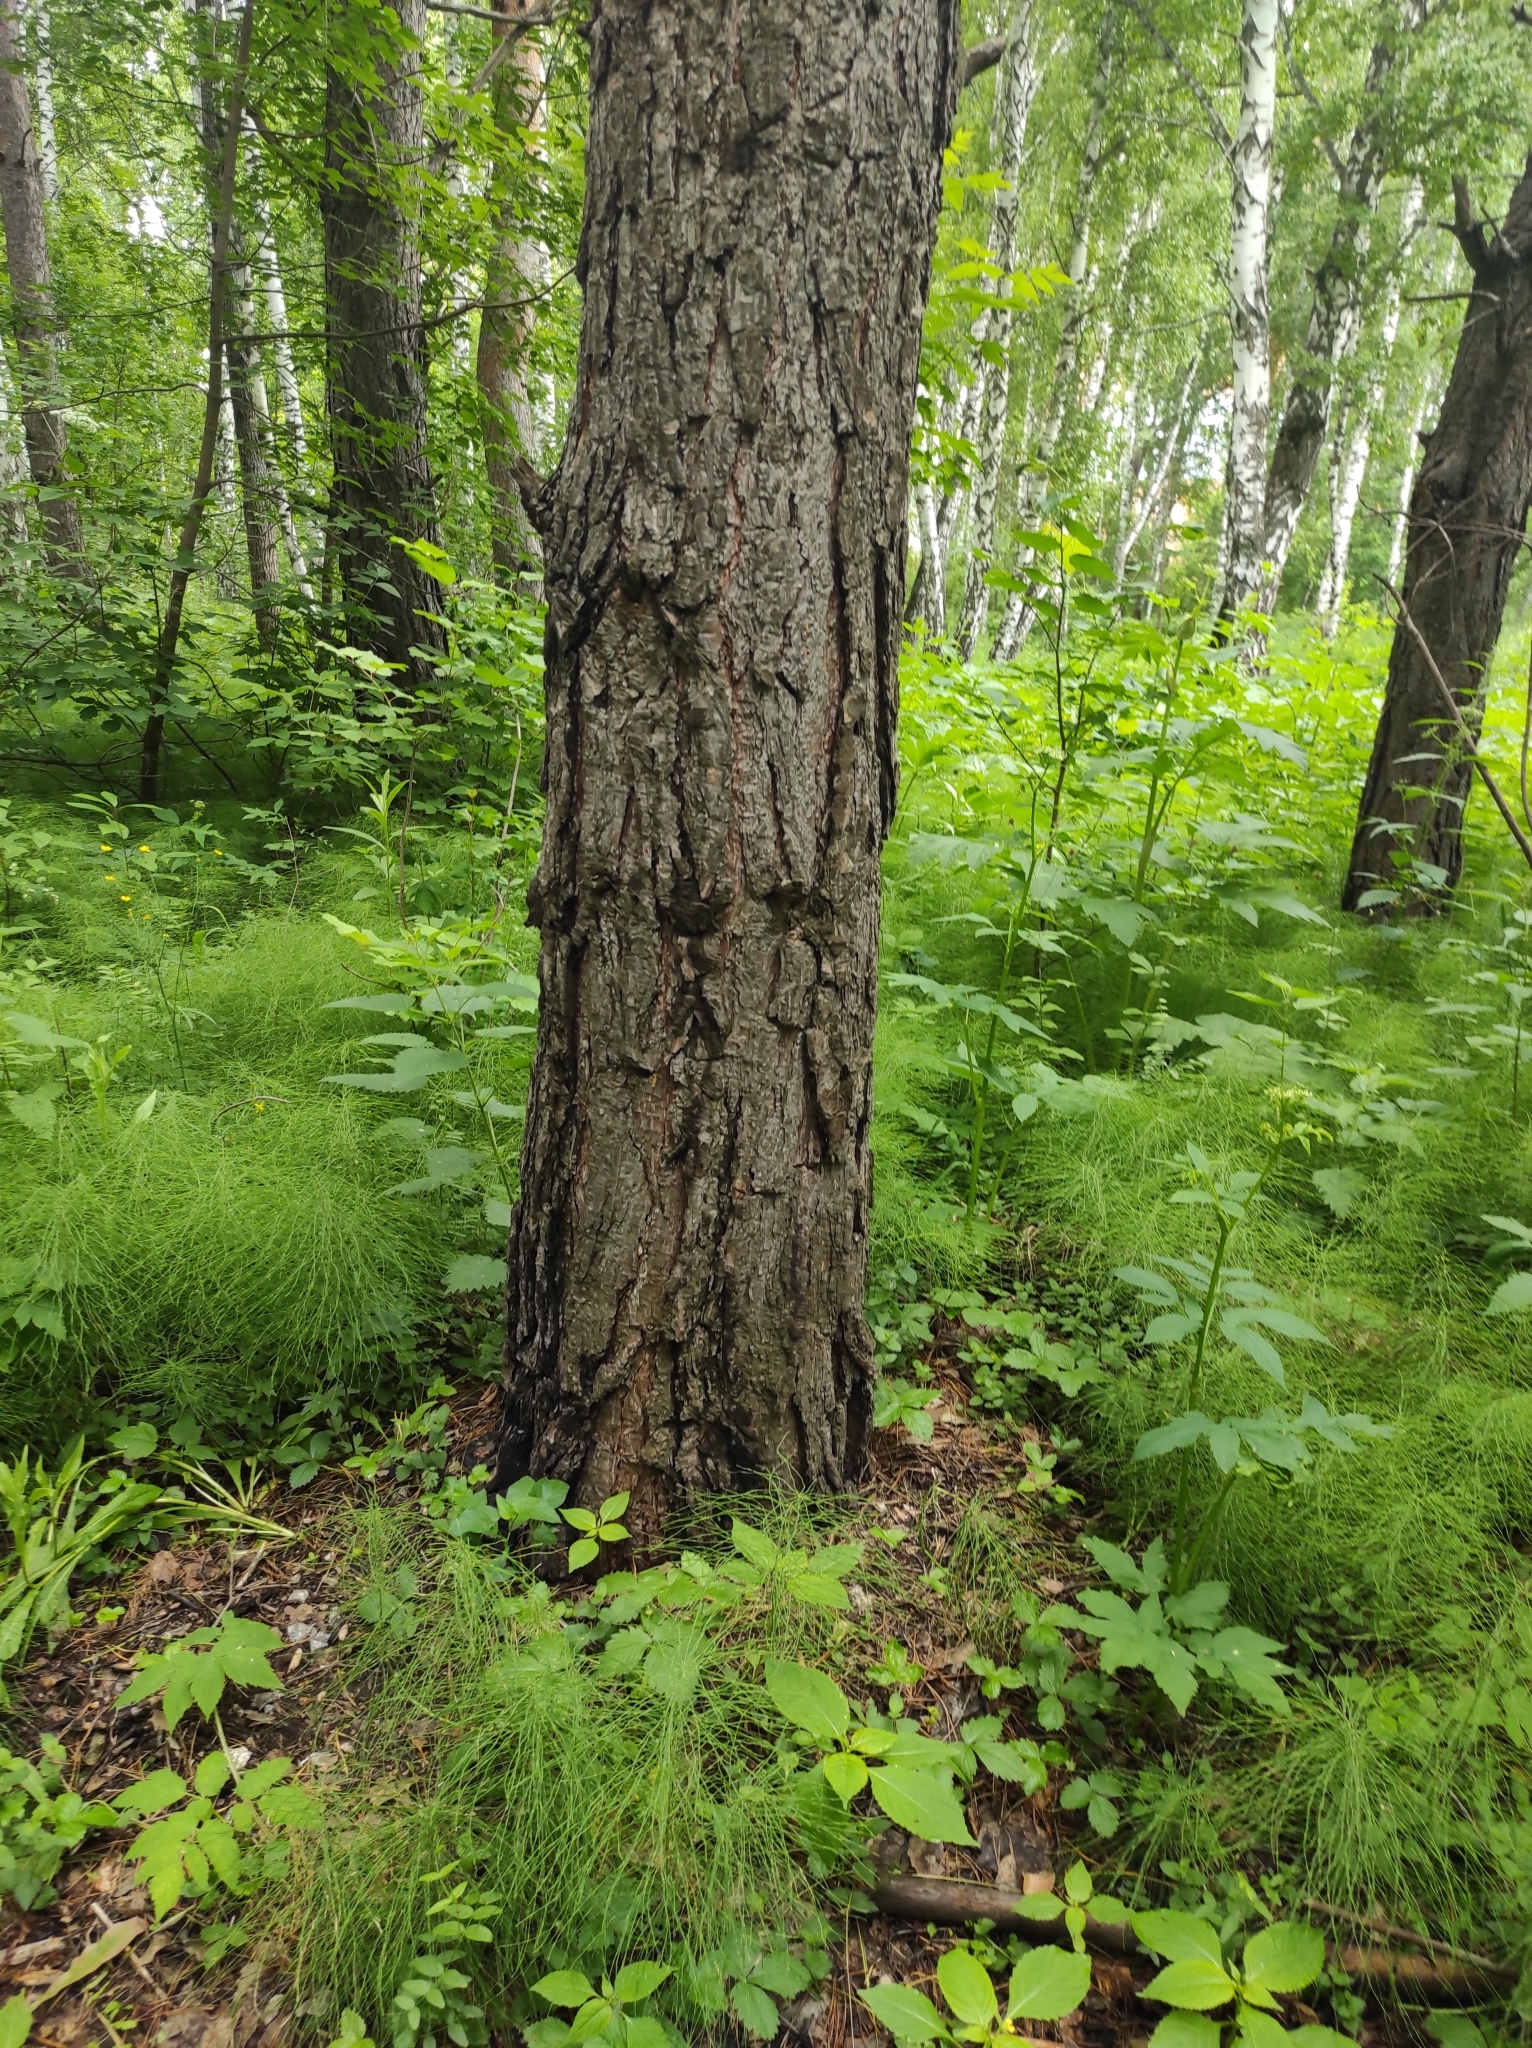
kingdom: Plantae
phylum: Tracheophyta
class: Pinopsida
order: Pinales
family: Pinaceae
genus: Pinus
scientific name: Pinus sylvestris
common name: Scots pine
